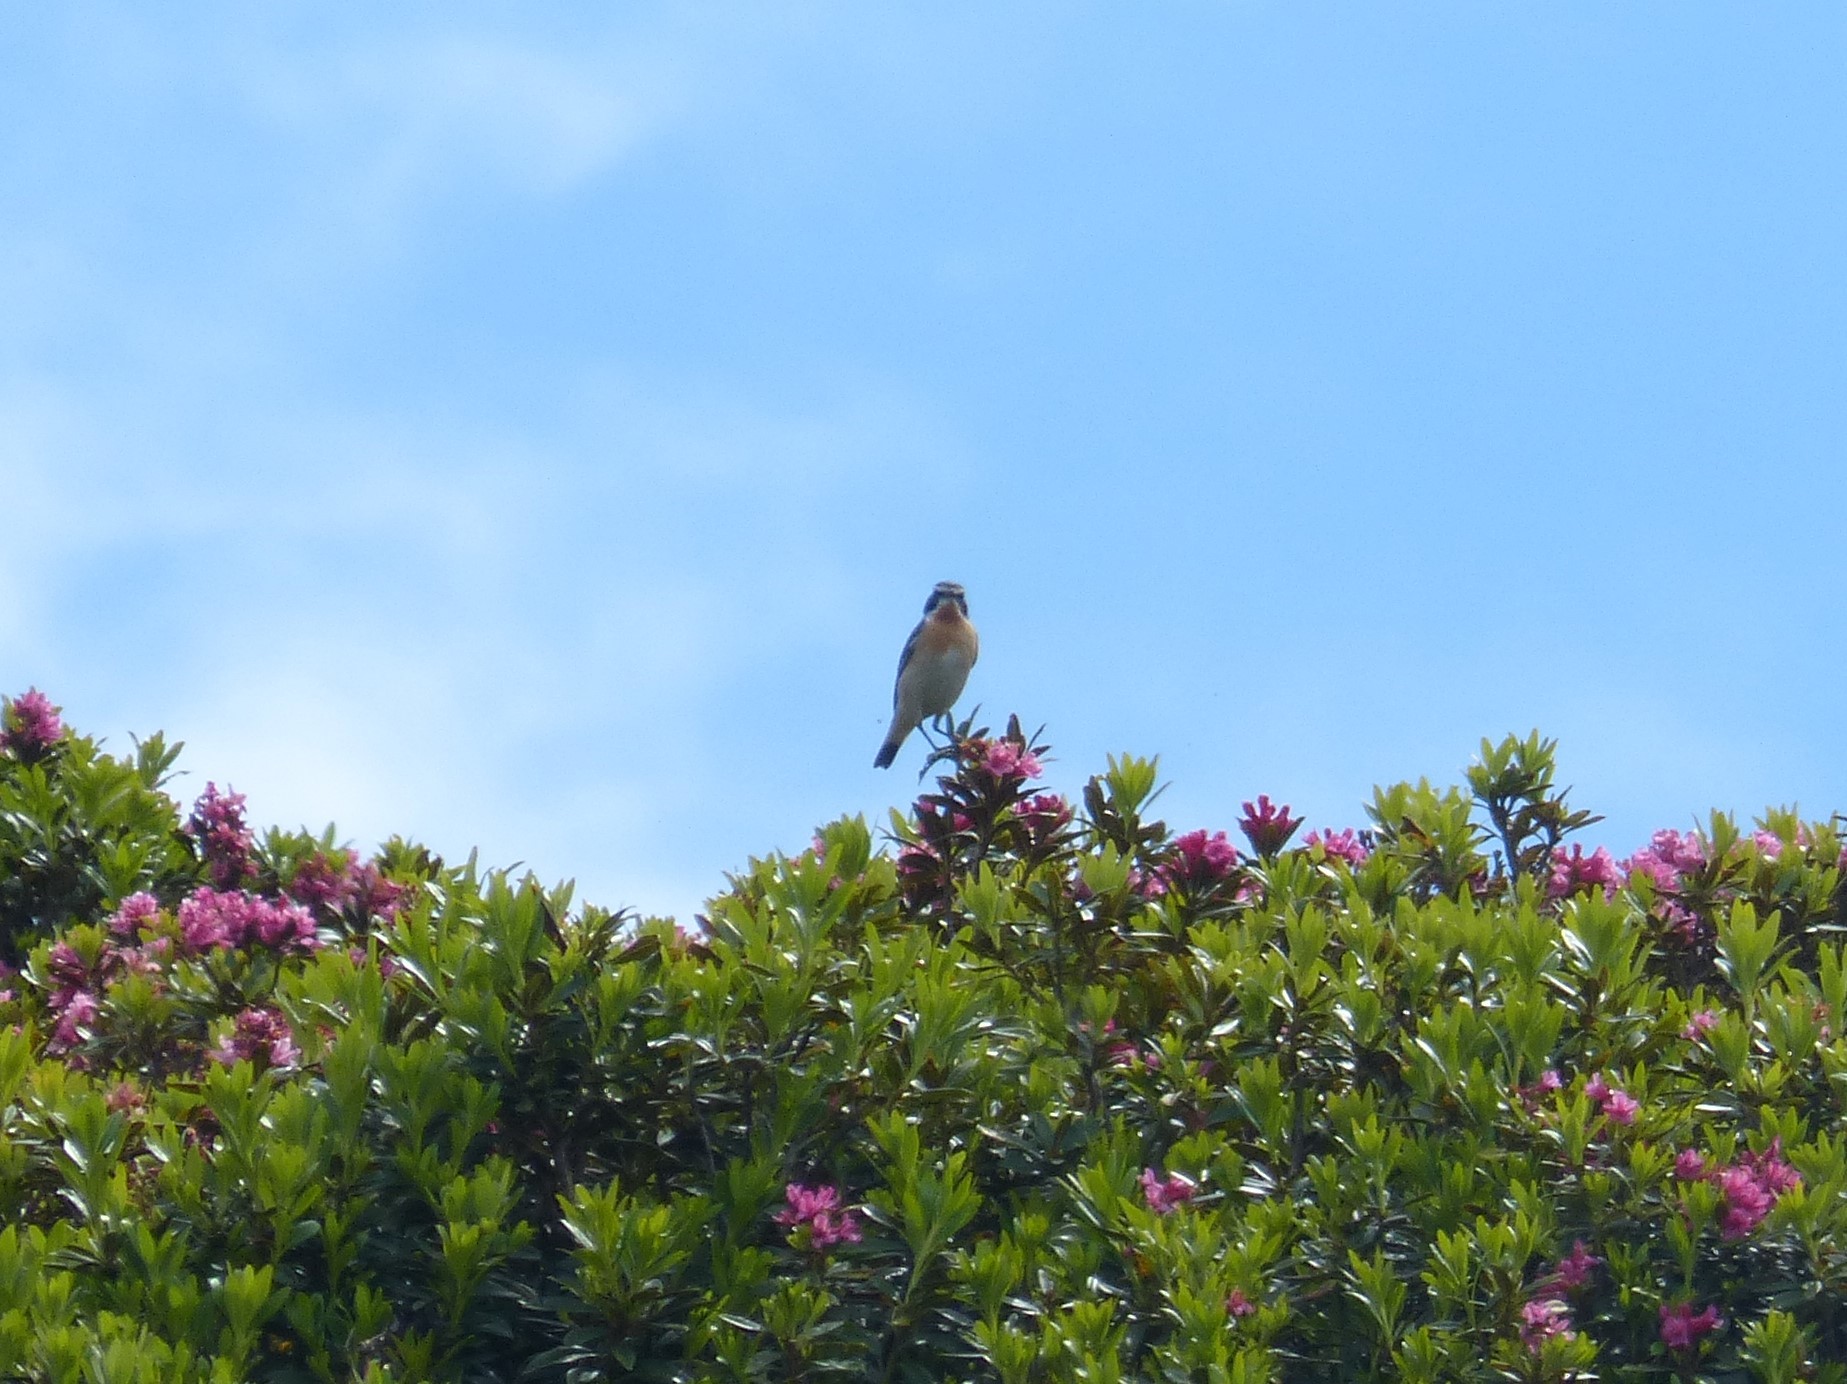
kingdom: Animalia
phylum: Chordata
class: Aves
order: Passeriformes
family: Muscicapidae
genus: Saxicola
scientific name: Saxicola rubetra
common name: Whinchat
